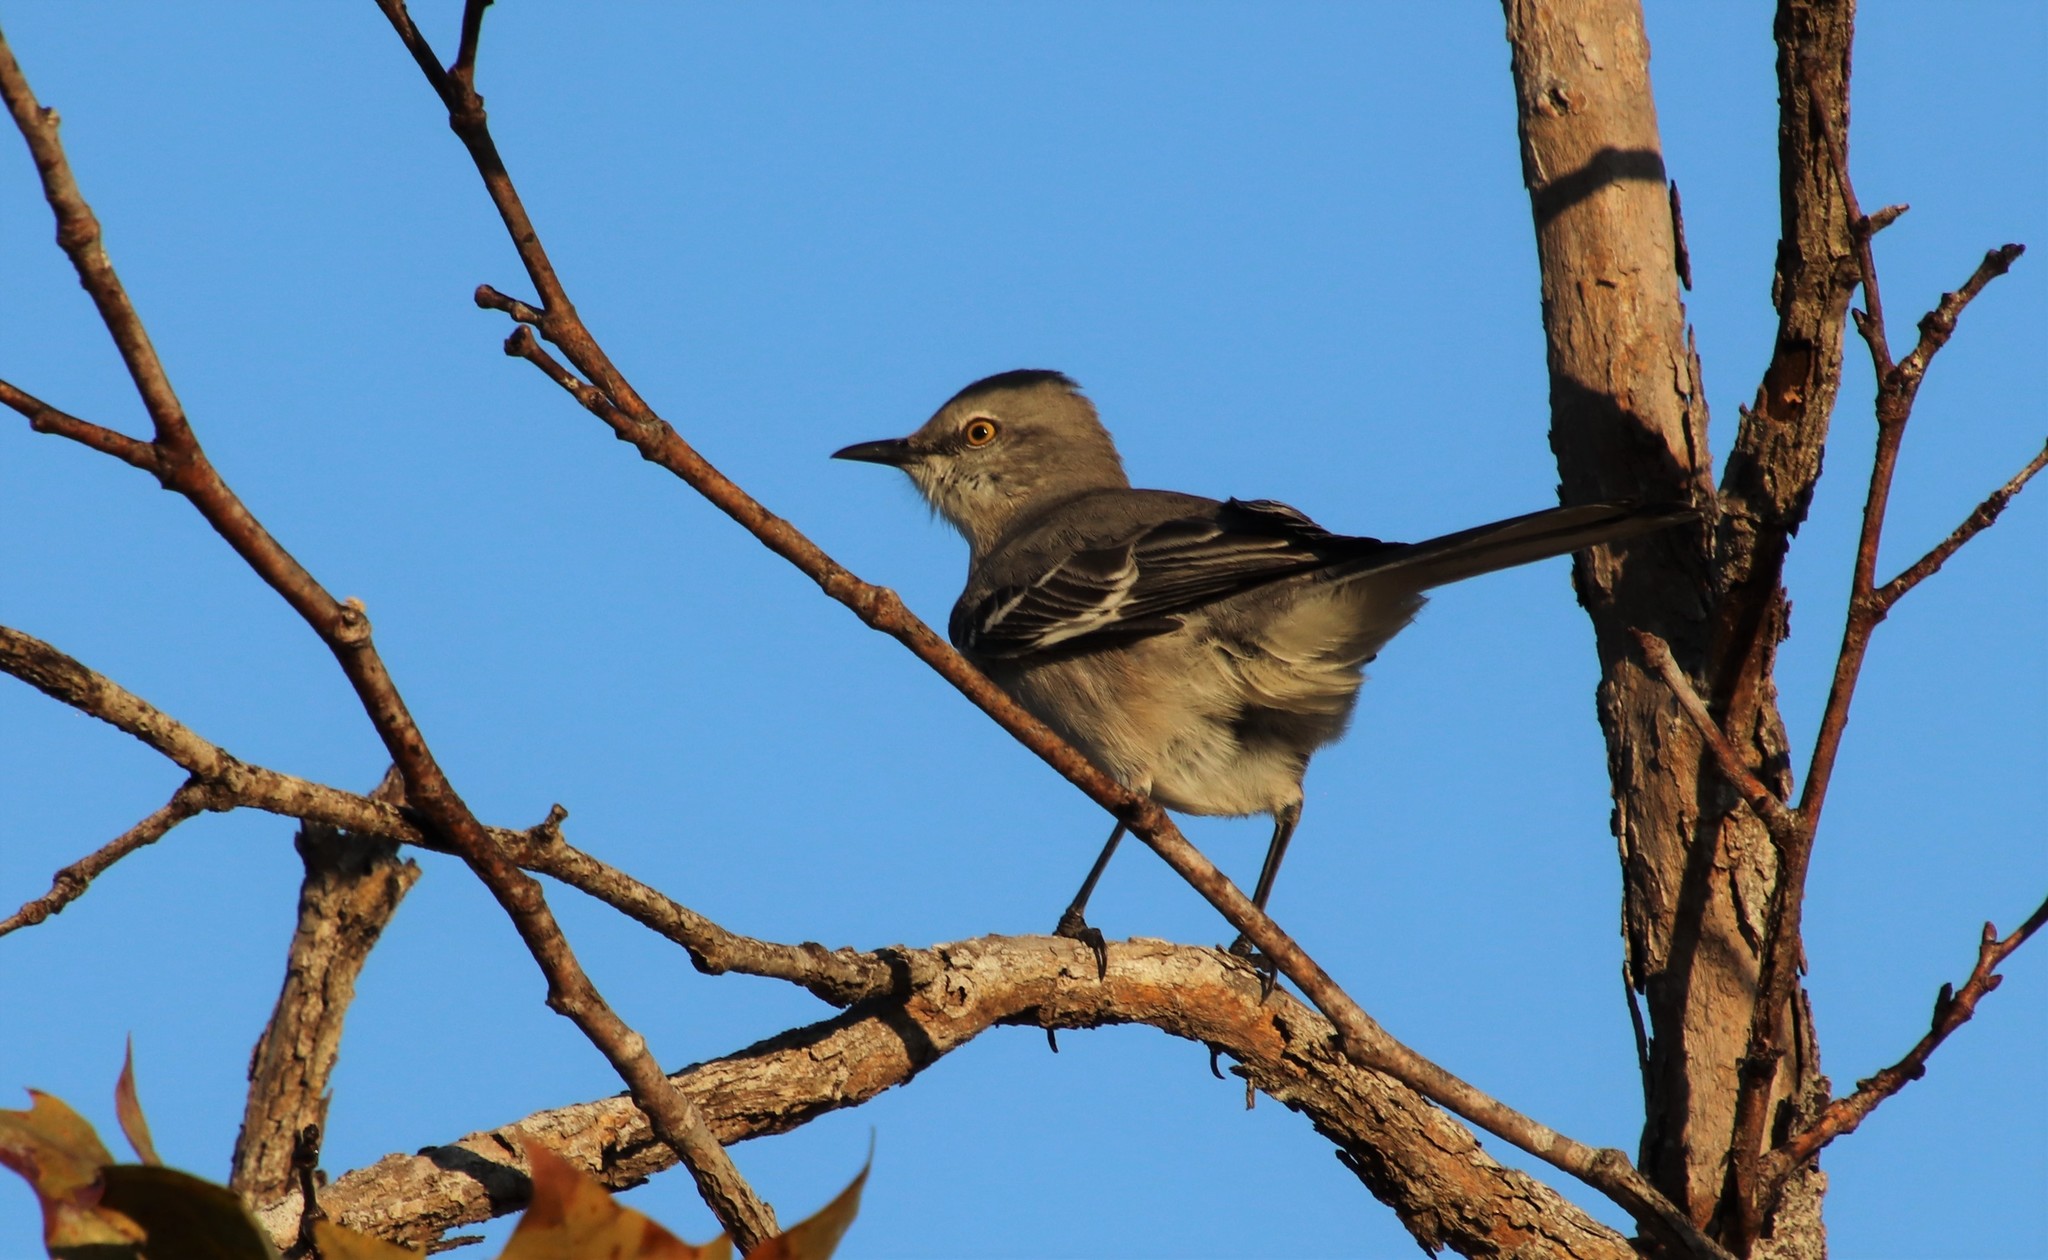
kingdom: Animalia
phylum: Chordata
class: Aves
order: Passeriformes
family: Mimidae
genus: Mimus
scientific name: Mimus polyglottos
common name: Northern mockingbird
